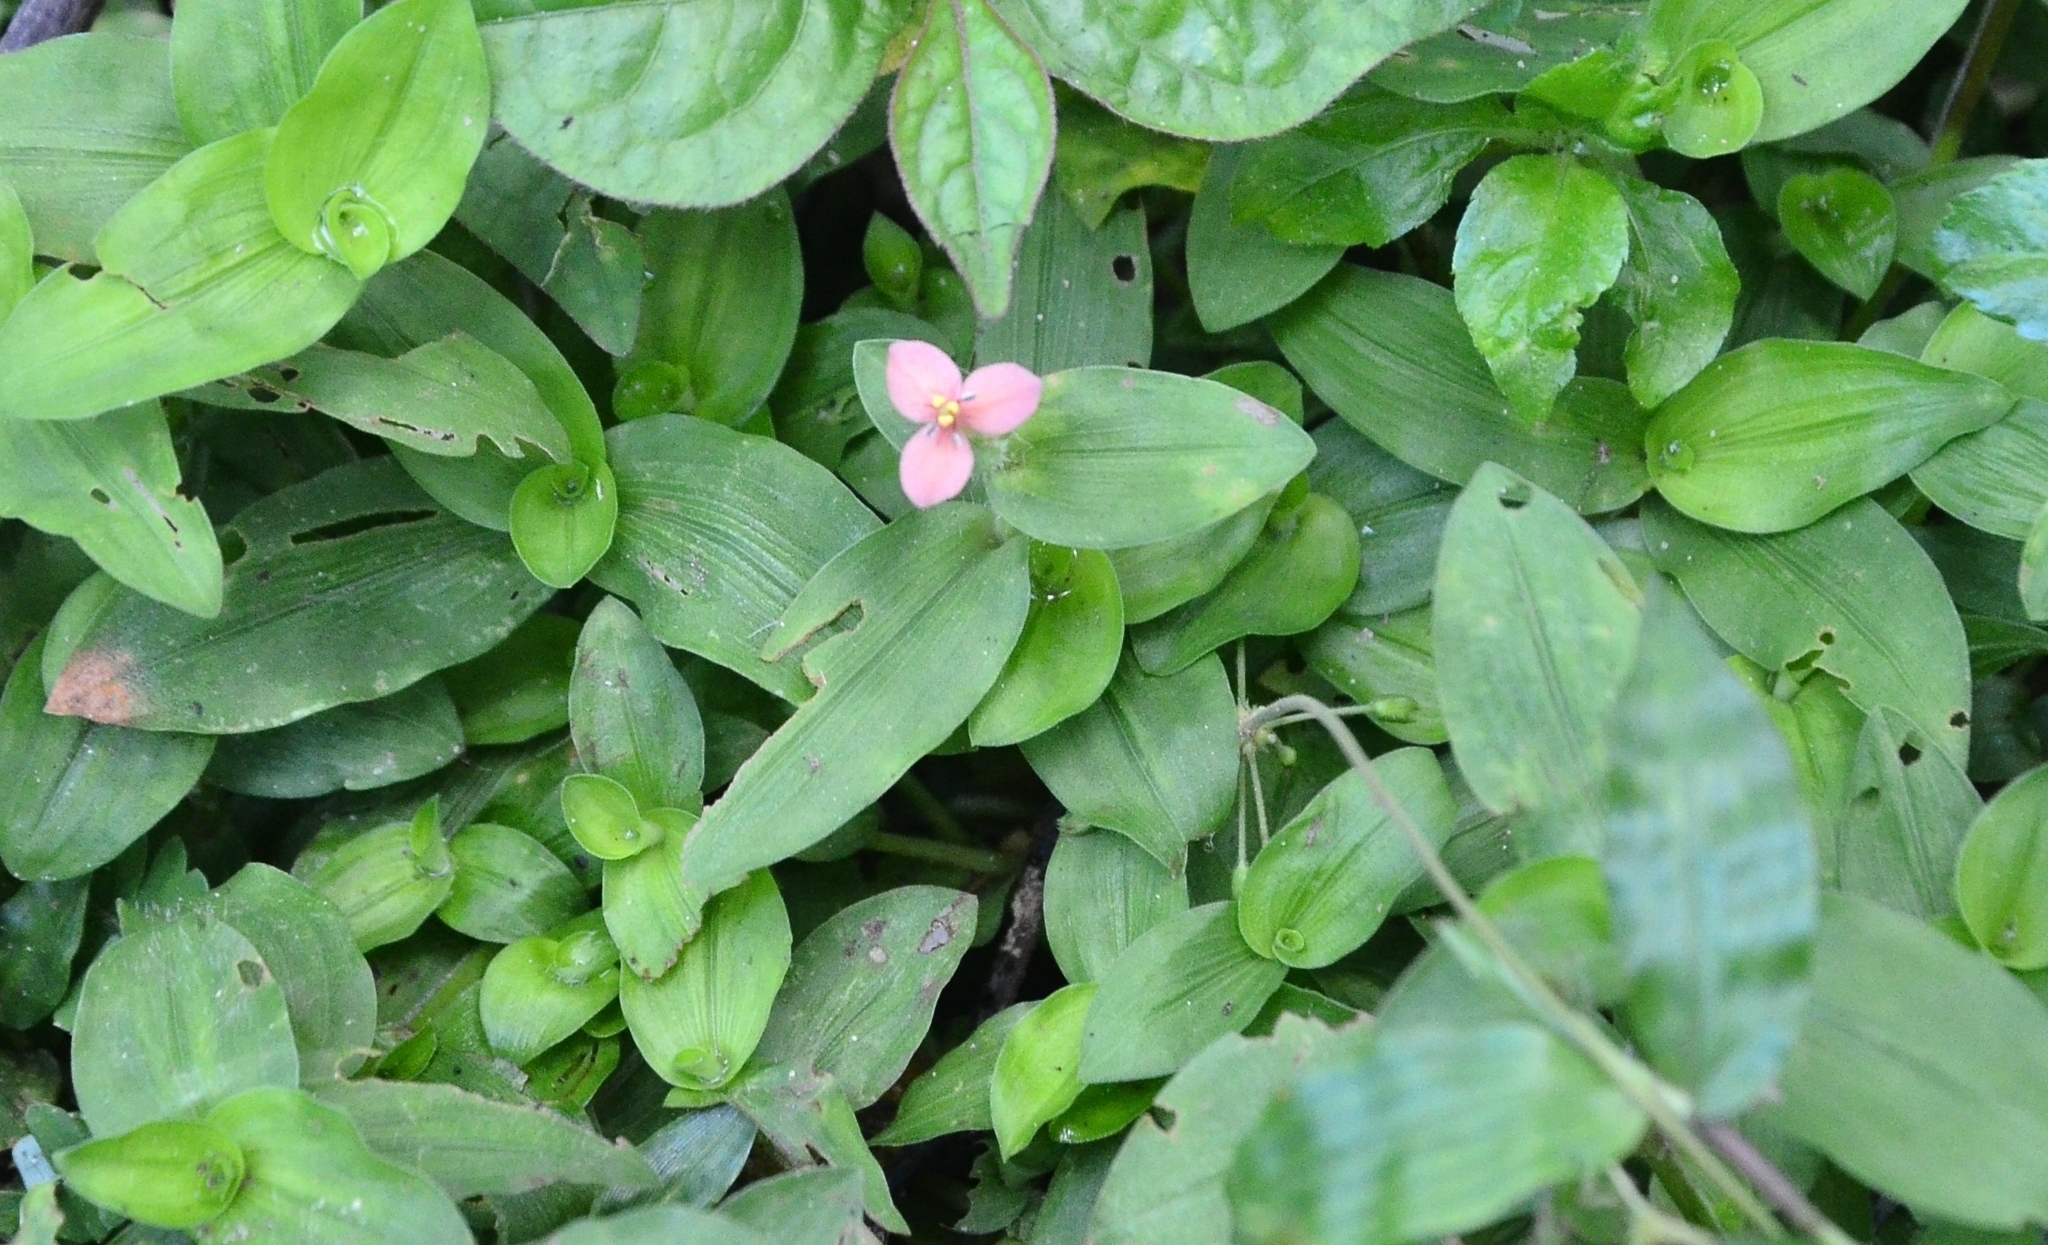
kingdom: Plantae
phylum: Tracheophyta
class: Liliopsida
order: Commelinales
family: Commelinaceae
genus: Murdannia
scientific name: Murdannia versicolor
